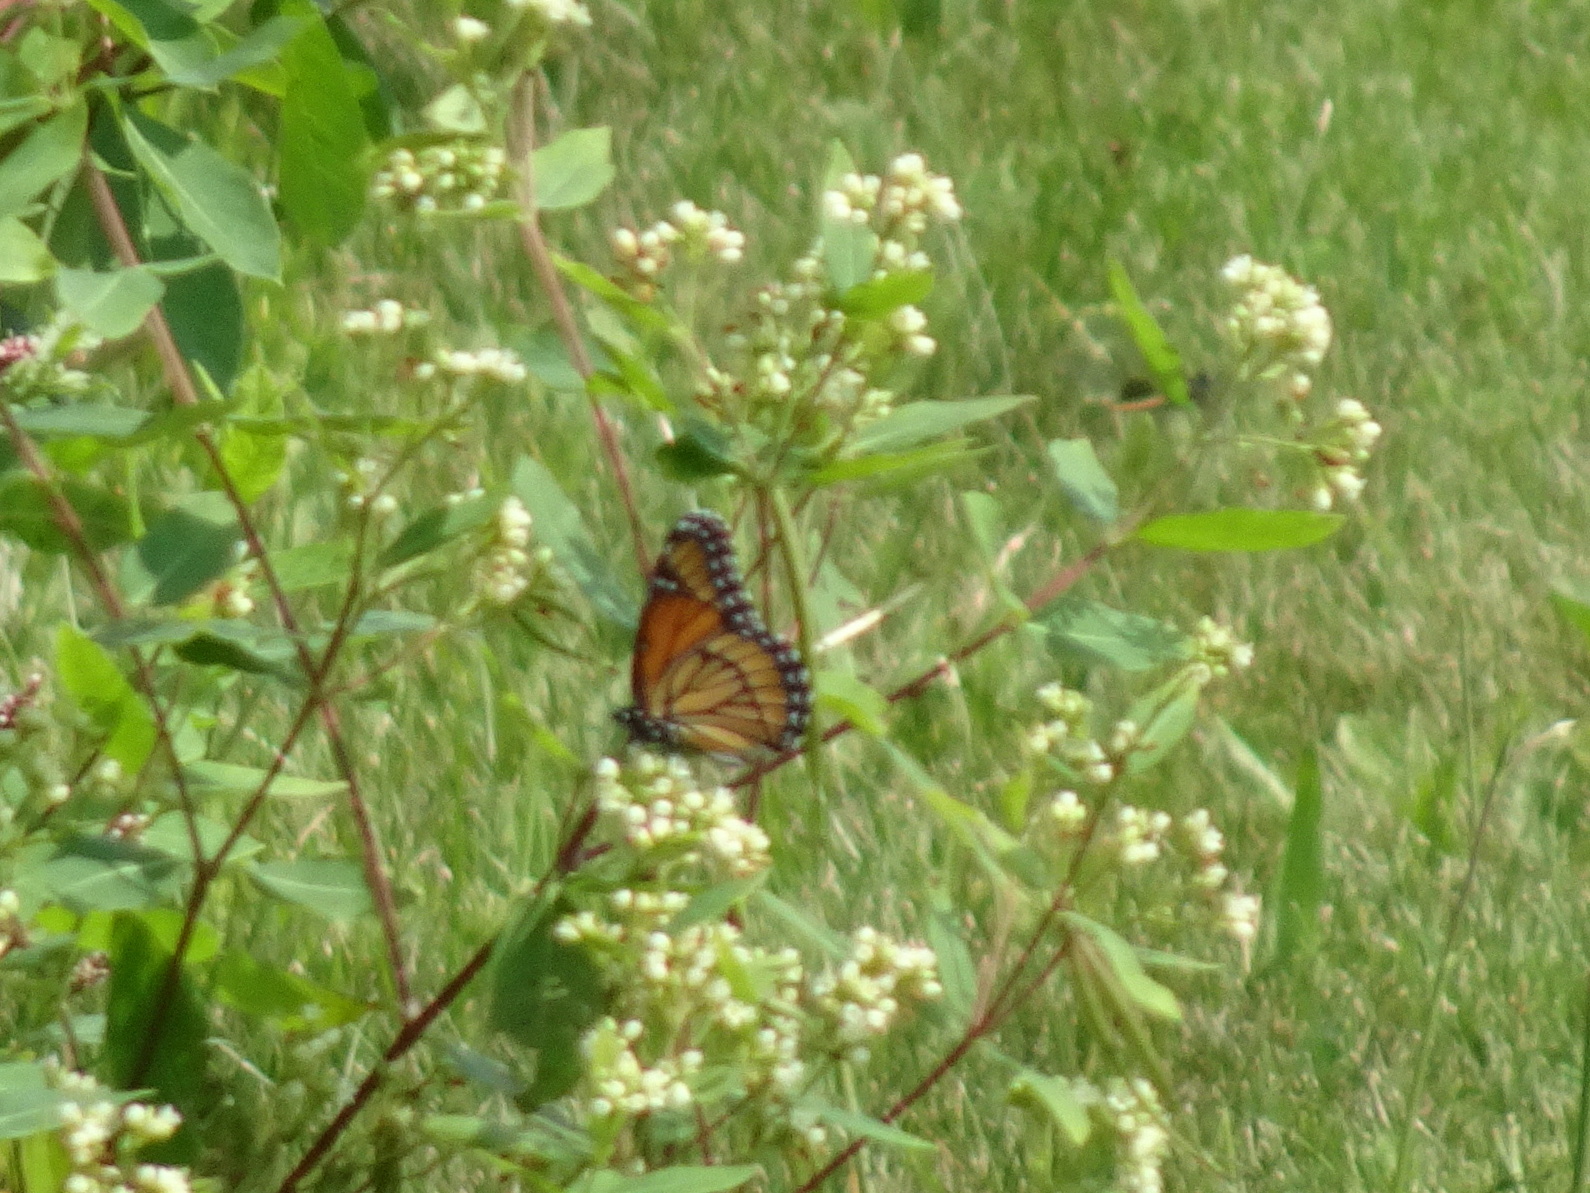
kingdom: Animalia
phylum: Arthropoda
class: Insecta
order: Lepidoptera
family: Nymphalidae
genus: Limenitis
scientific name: Limenitis archippus
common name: Viceroy
